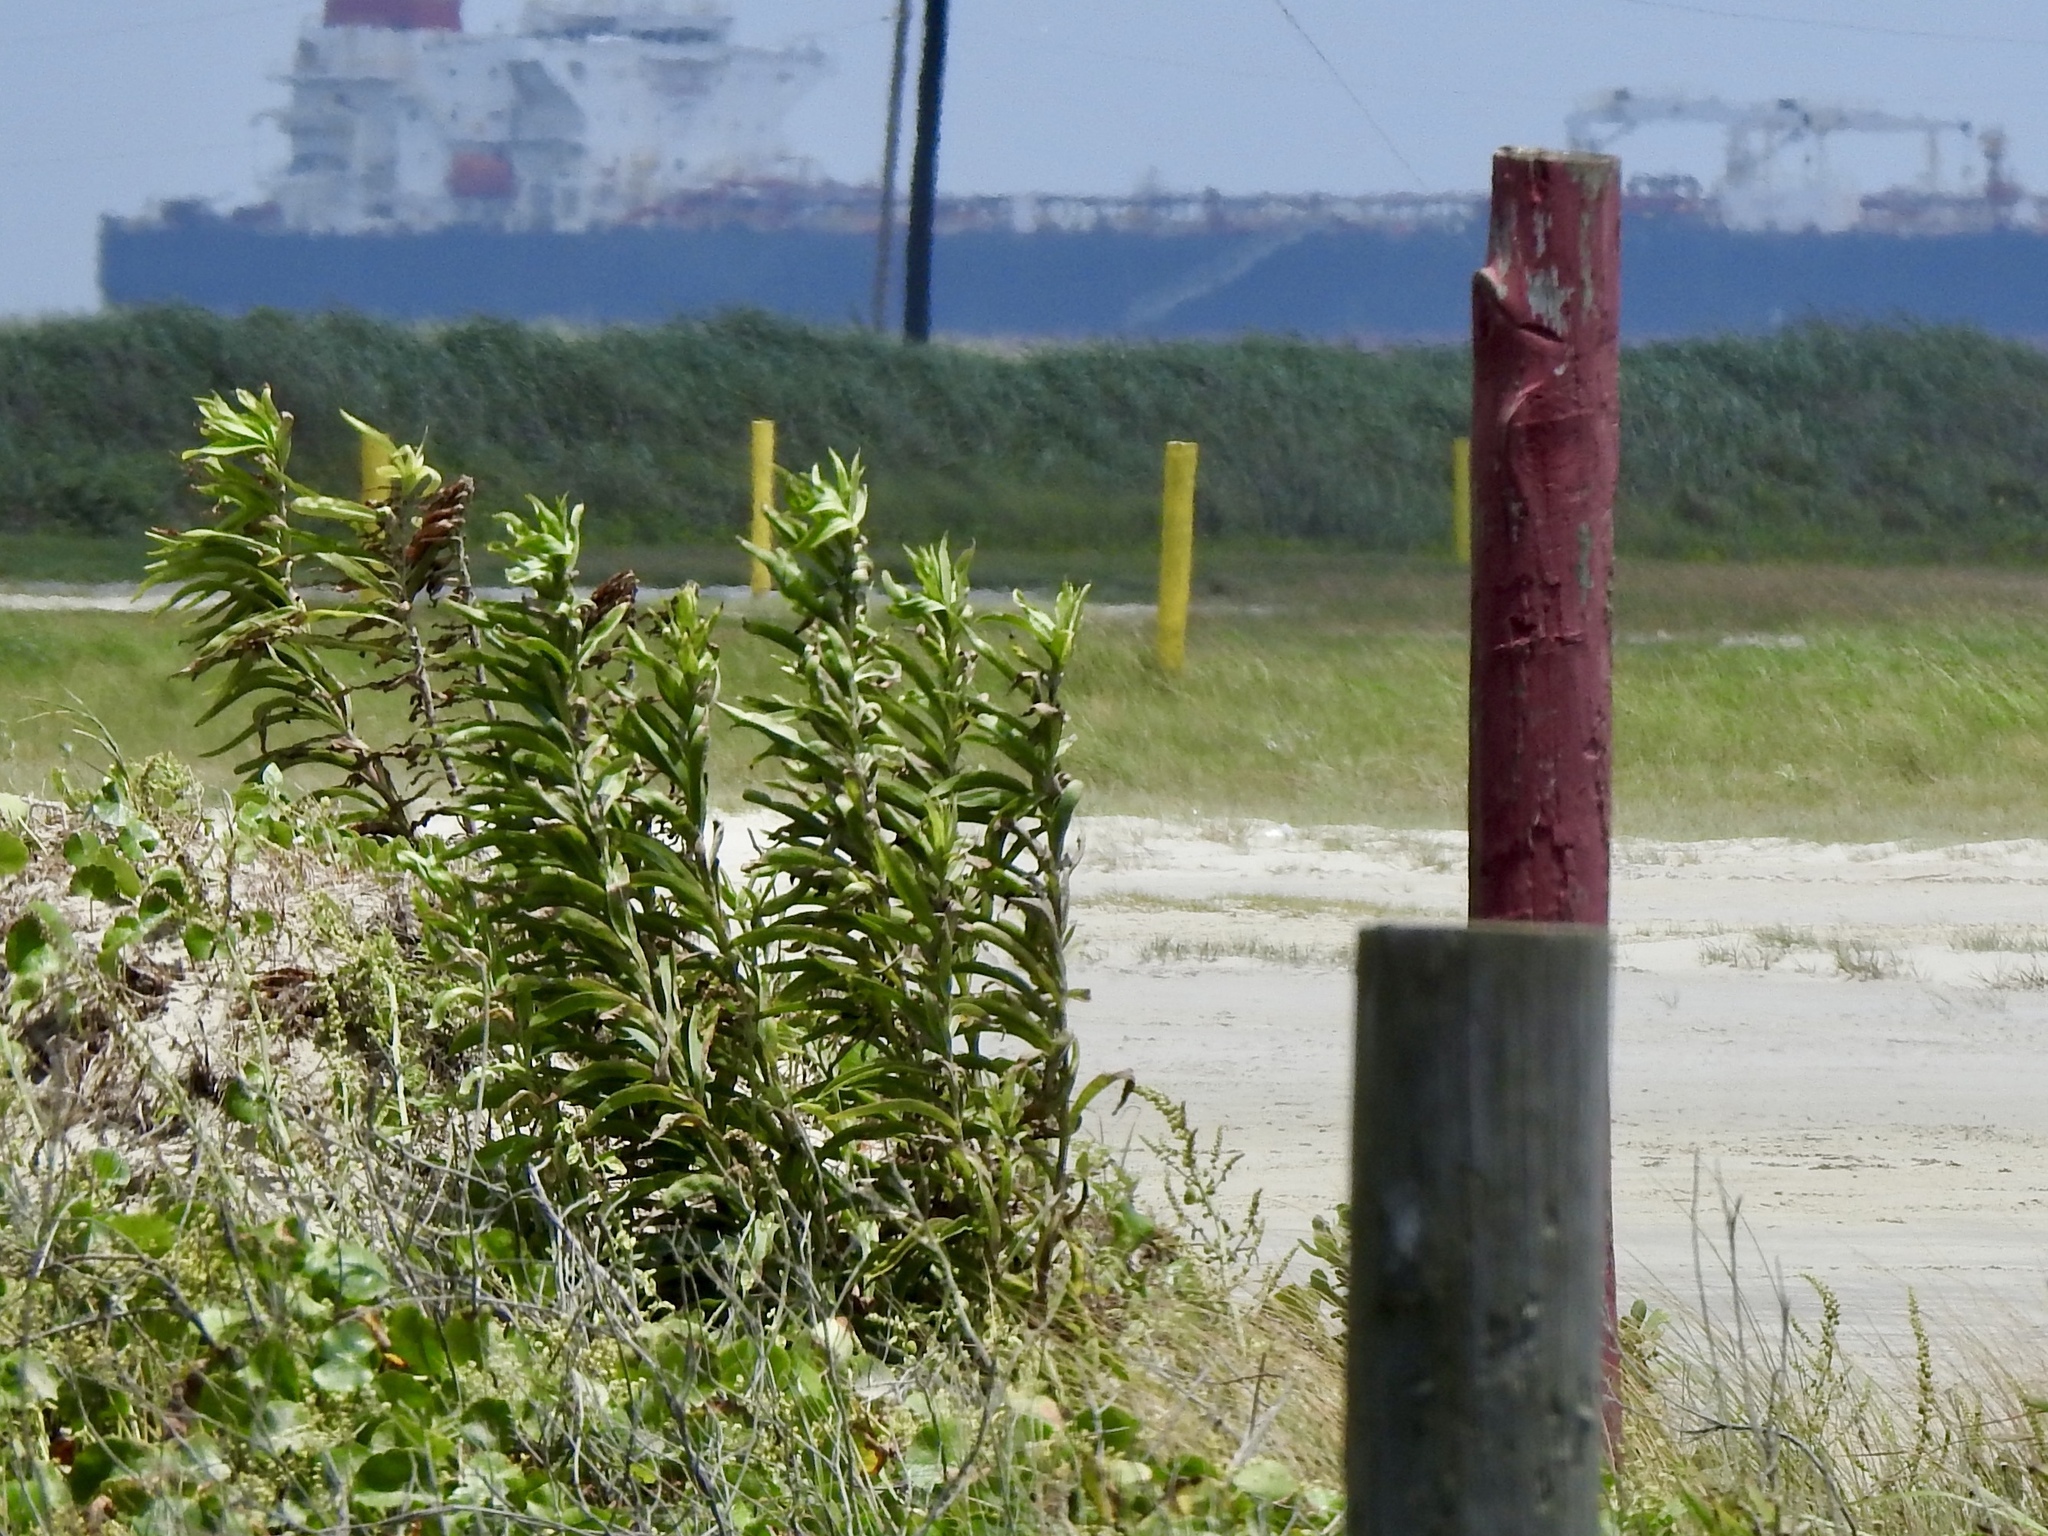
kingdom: Plantae
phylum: Tracheophyta
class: Magnoliopsida
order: Asterales
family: Asteraceae
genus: Solidago
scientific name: Solidago mexicana
